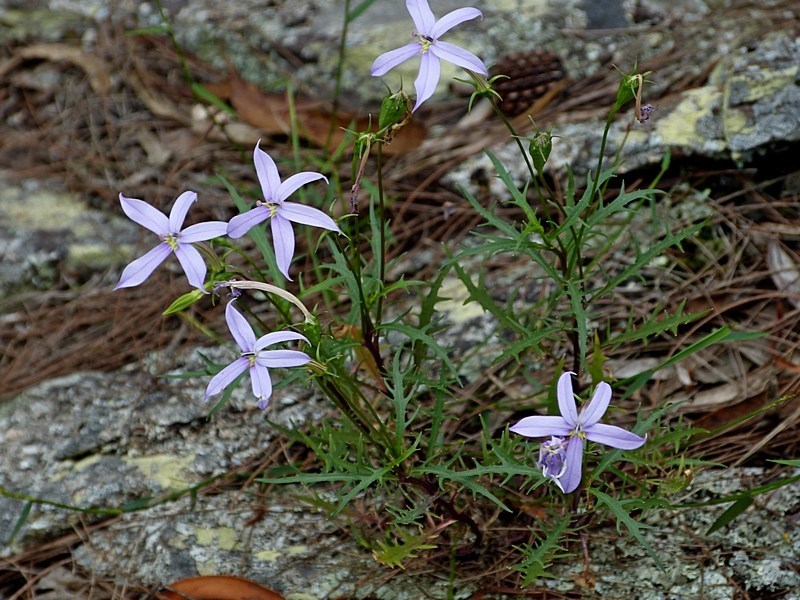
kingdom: Plantae
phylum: Tracheophyta
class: Magnoliopsida
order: Asterales
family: Campanulaceae
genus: Lithotoma
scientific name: Lithotoma axillaris
